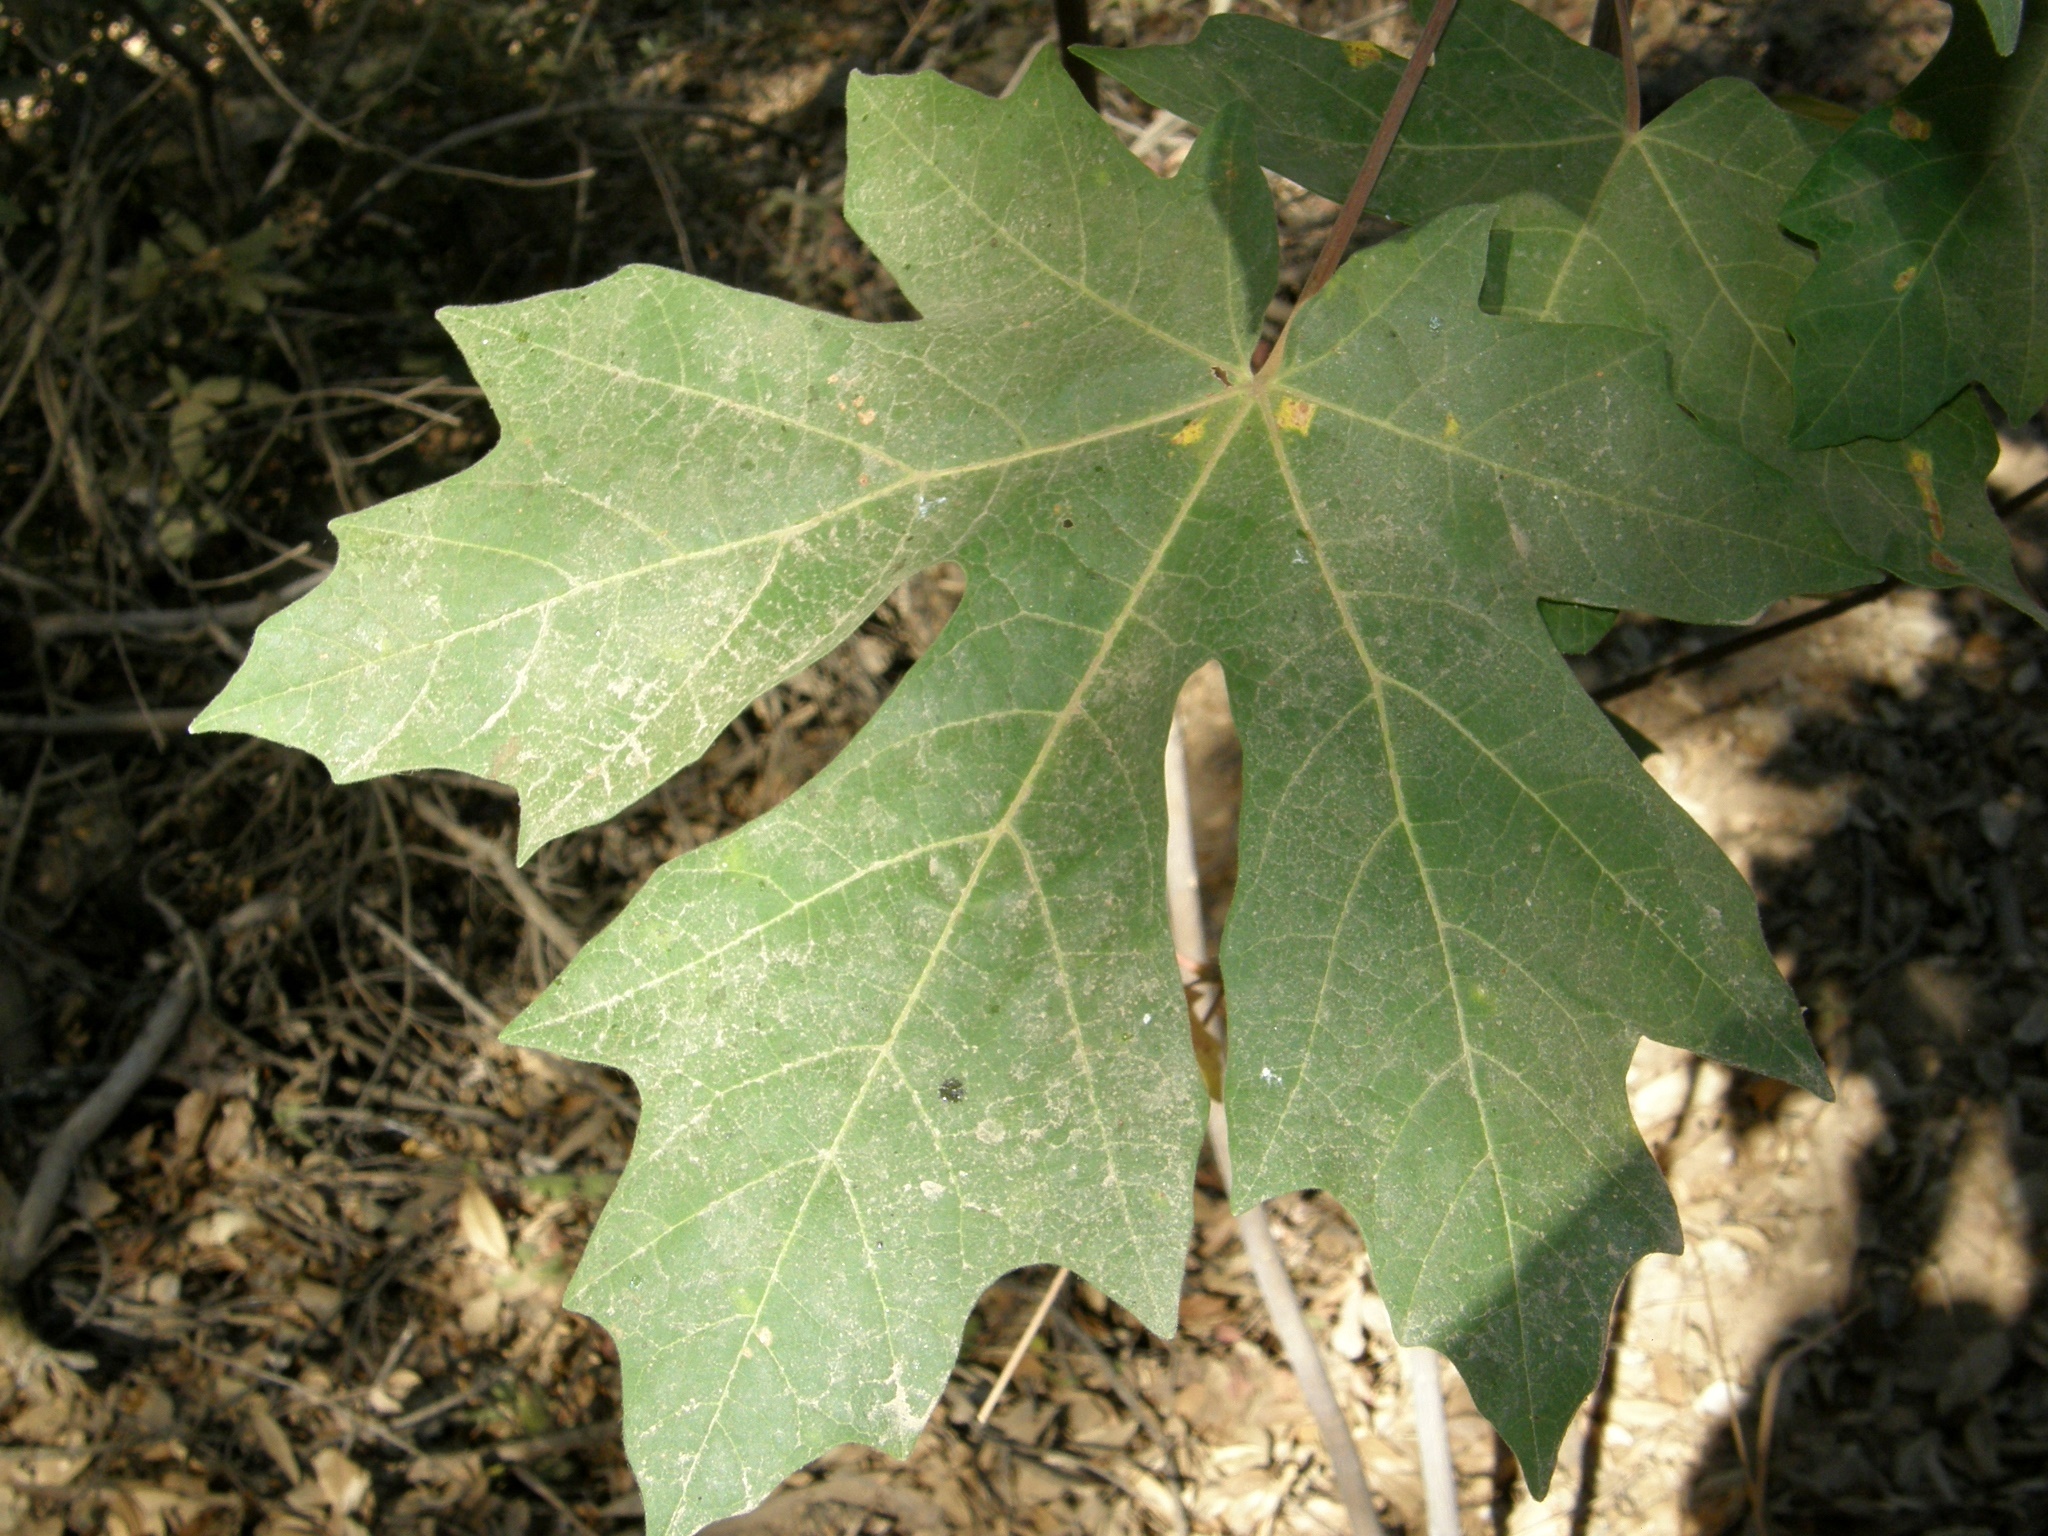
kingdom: Plantae
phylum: Tracheophyta
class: Magnoliopsida
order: Sapindales
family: Sapindaceae
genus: Acer
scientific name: Acer macrophyllum
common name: Oregon maple
